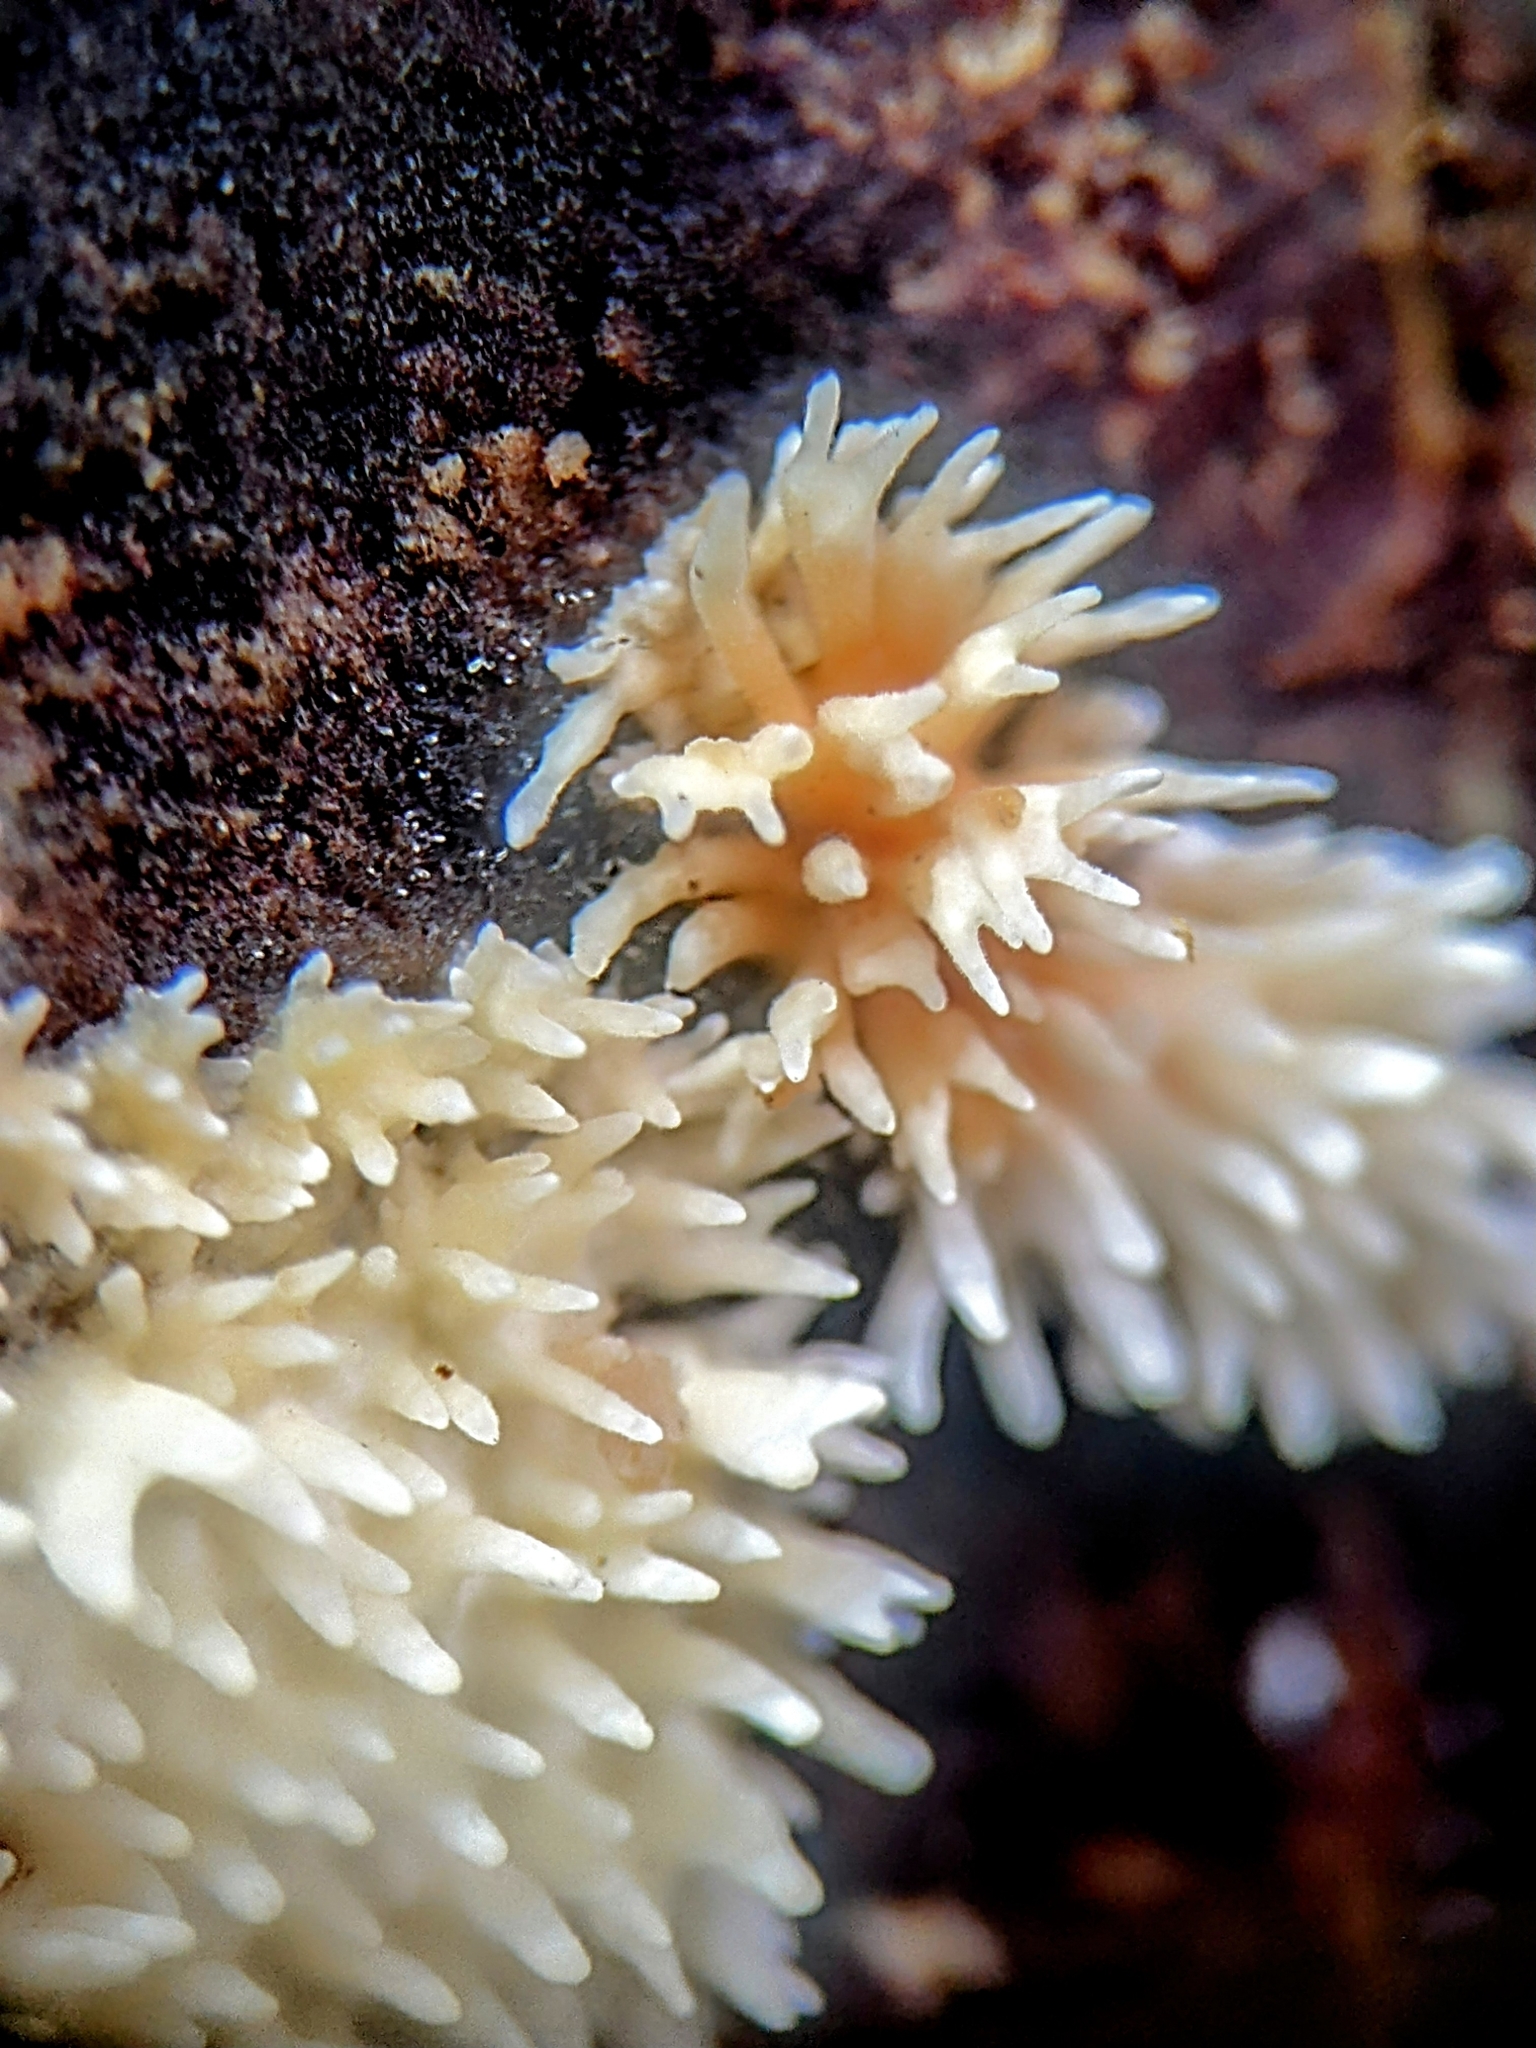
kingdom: Fungi
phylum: Basidiomycota
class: Agaricomycetes
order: Auriculariales
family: Auriculariaceae
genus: Elmerina
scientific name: Elmerina sclerodontia
